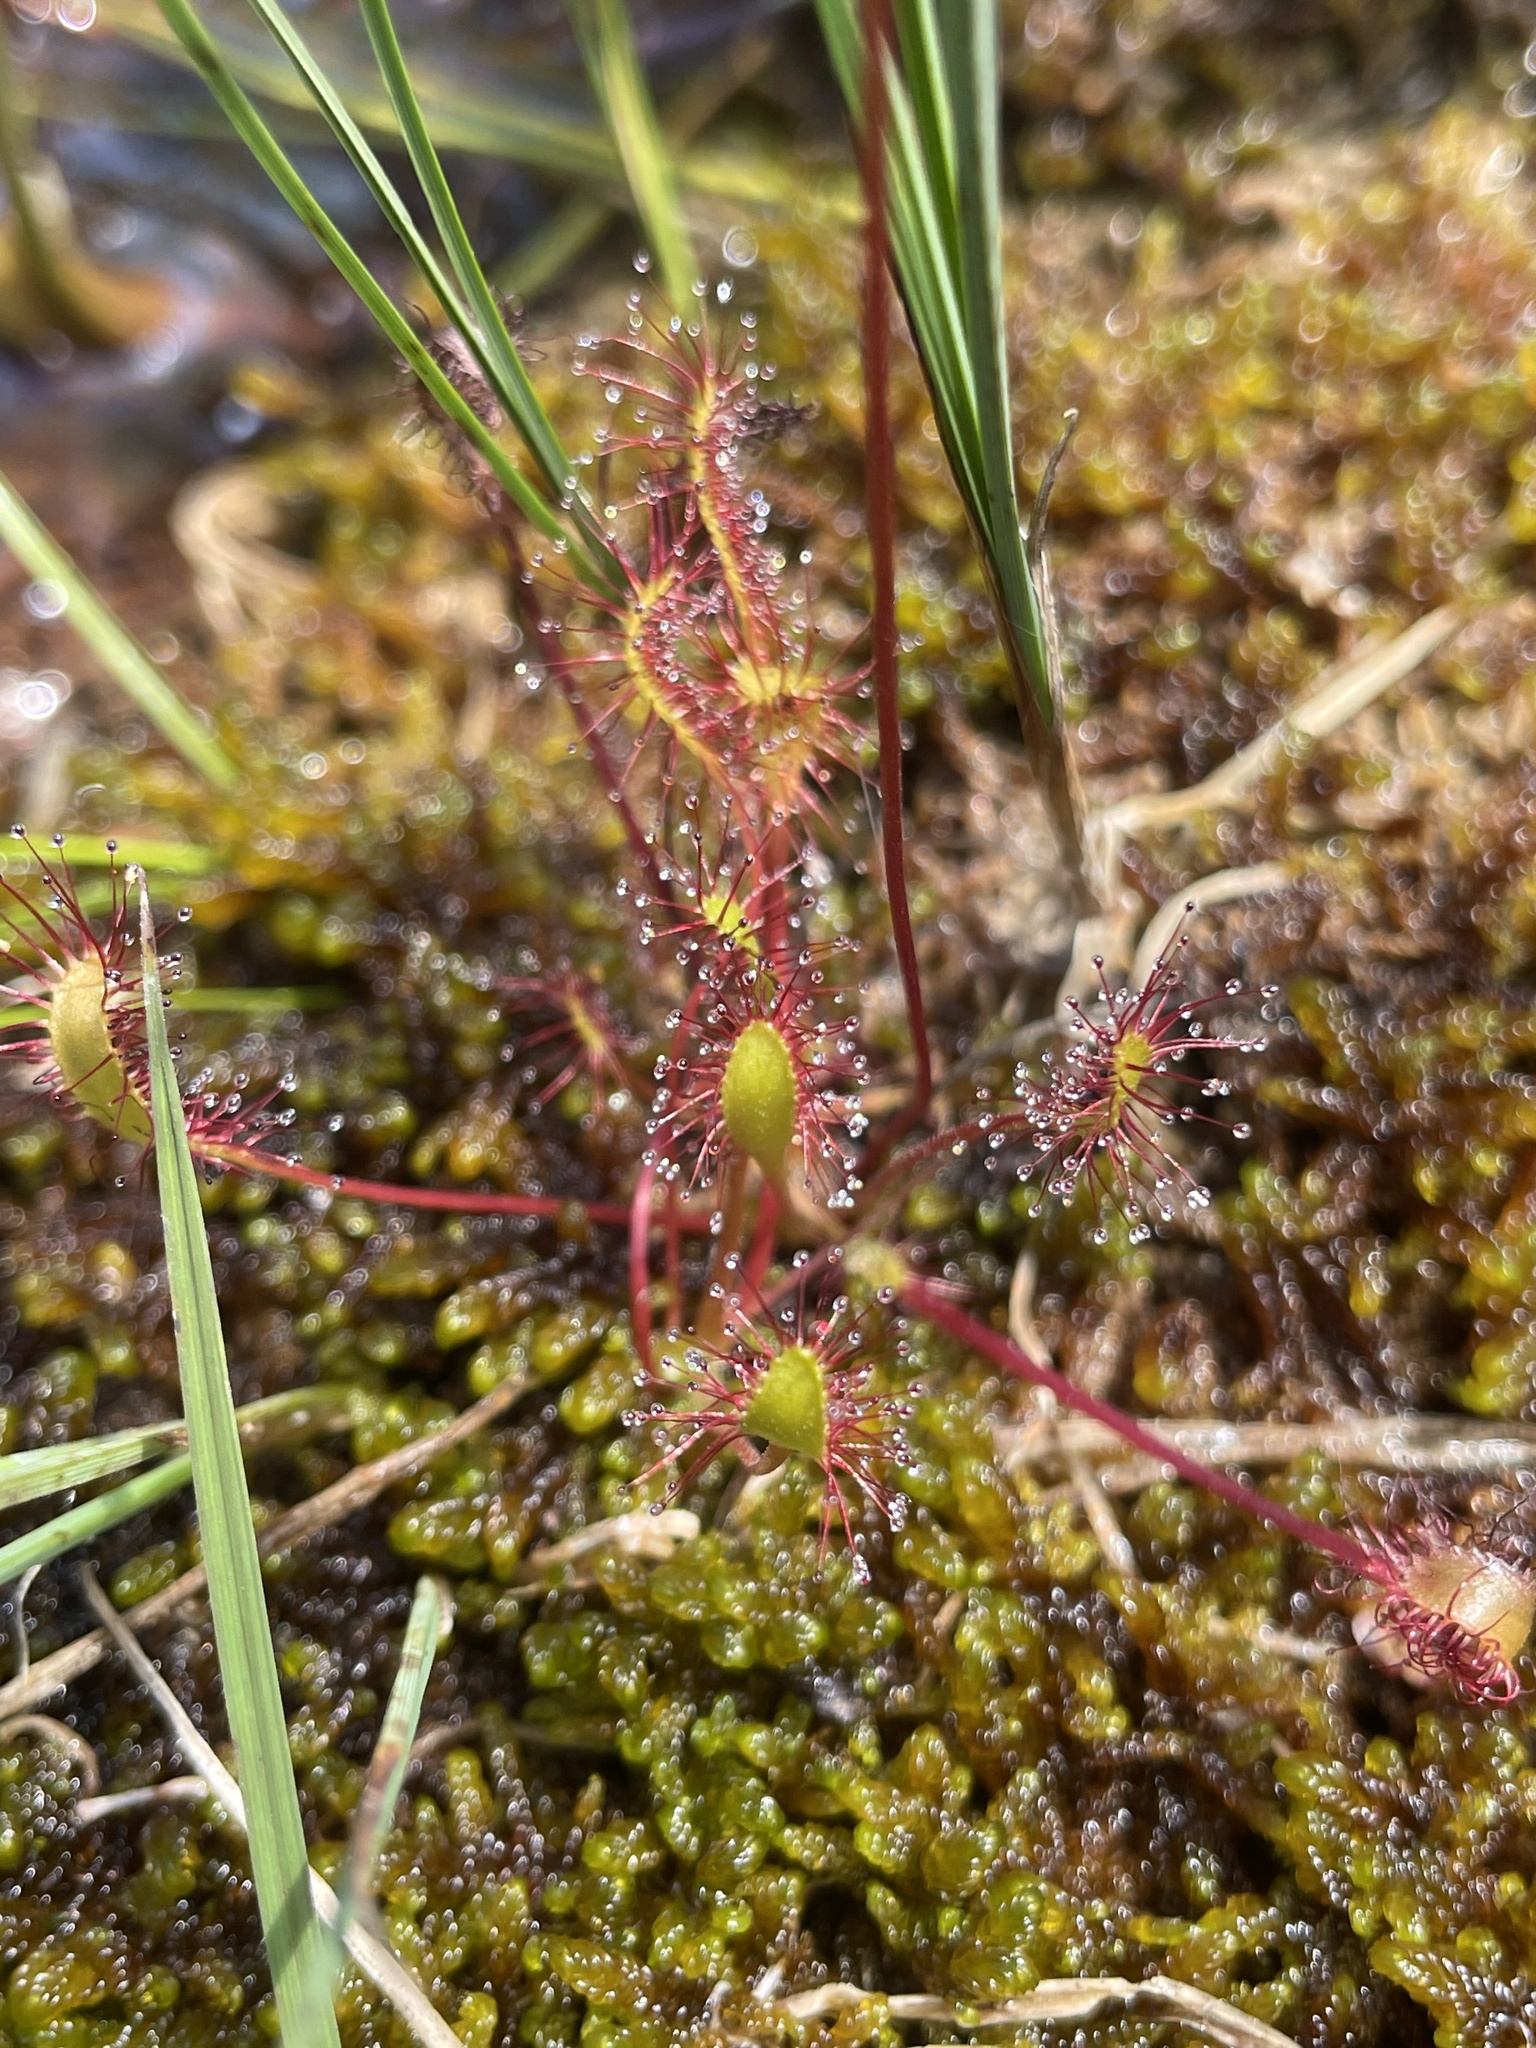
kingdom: Plantae
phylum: Tracheophyta
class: Magnoliopsida
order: Caryophyllales
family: Droseraceae
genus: Drosera
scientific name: Drosera anglica
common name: Great sundew
